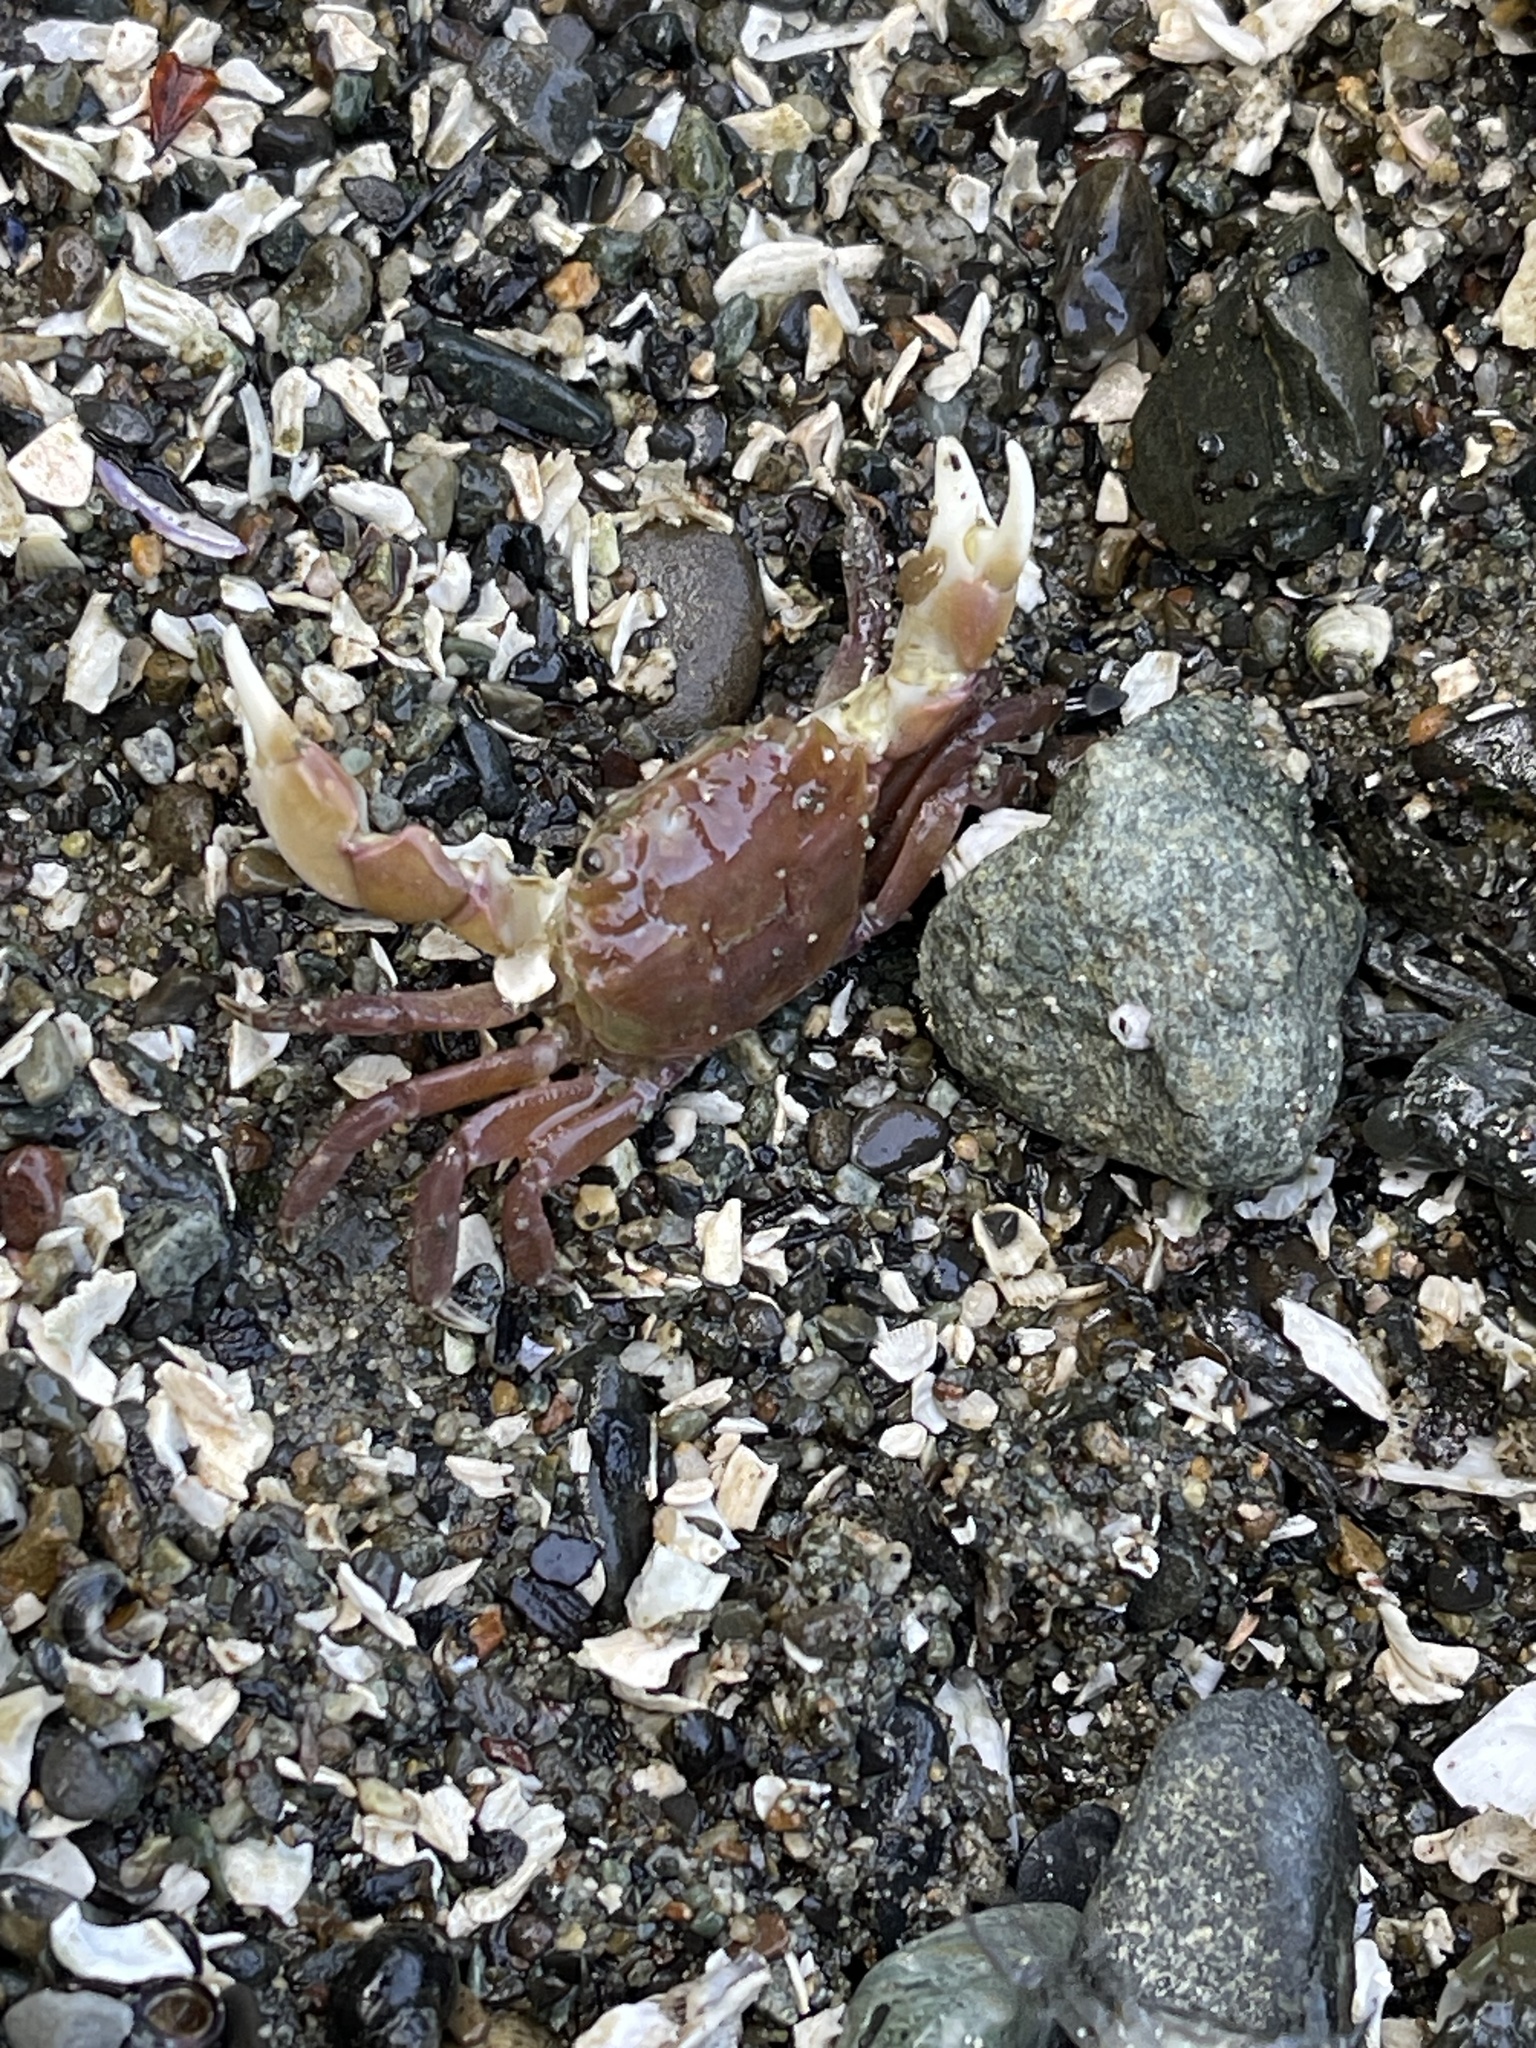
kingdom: Animalia
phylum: Arthropoda
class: Malacostraca
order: Decapoda
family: Varunidae
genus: Hemigrapsus
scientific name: Hemigrapsus oregonensis
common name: Yellow shore crab
